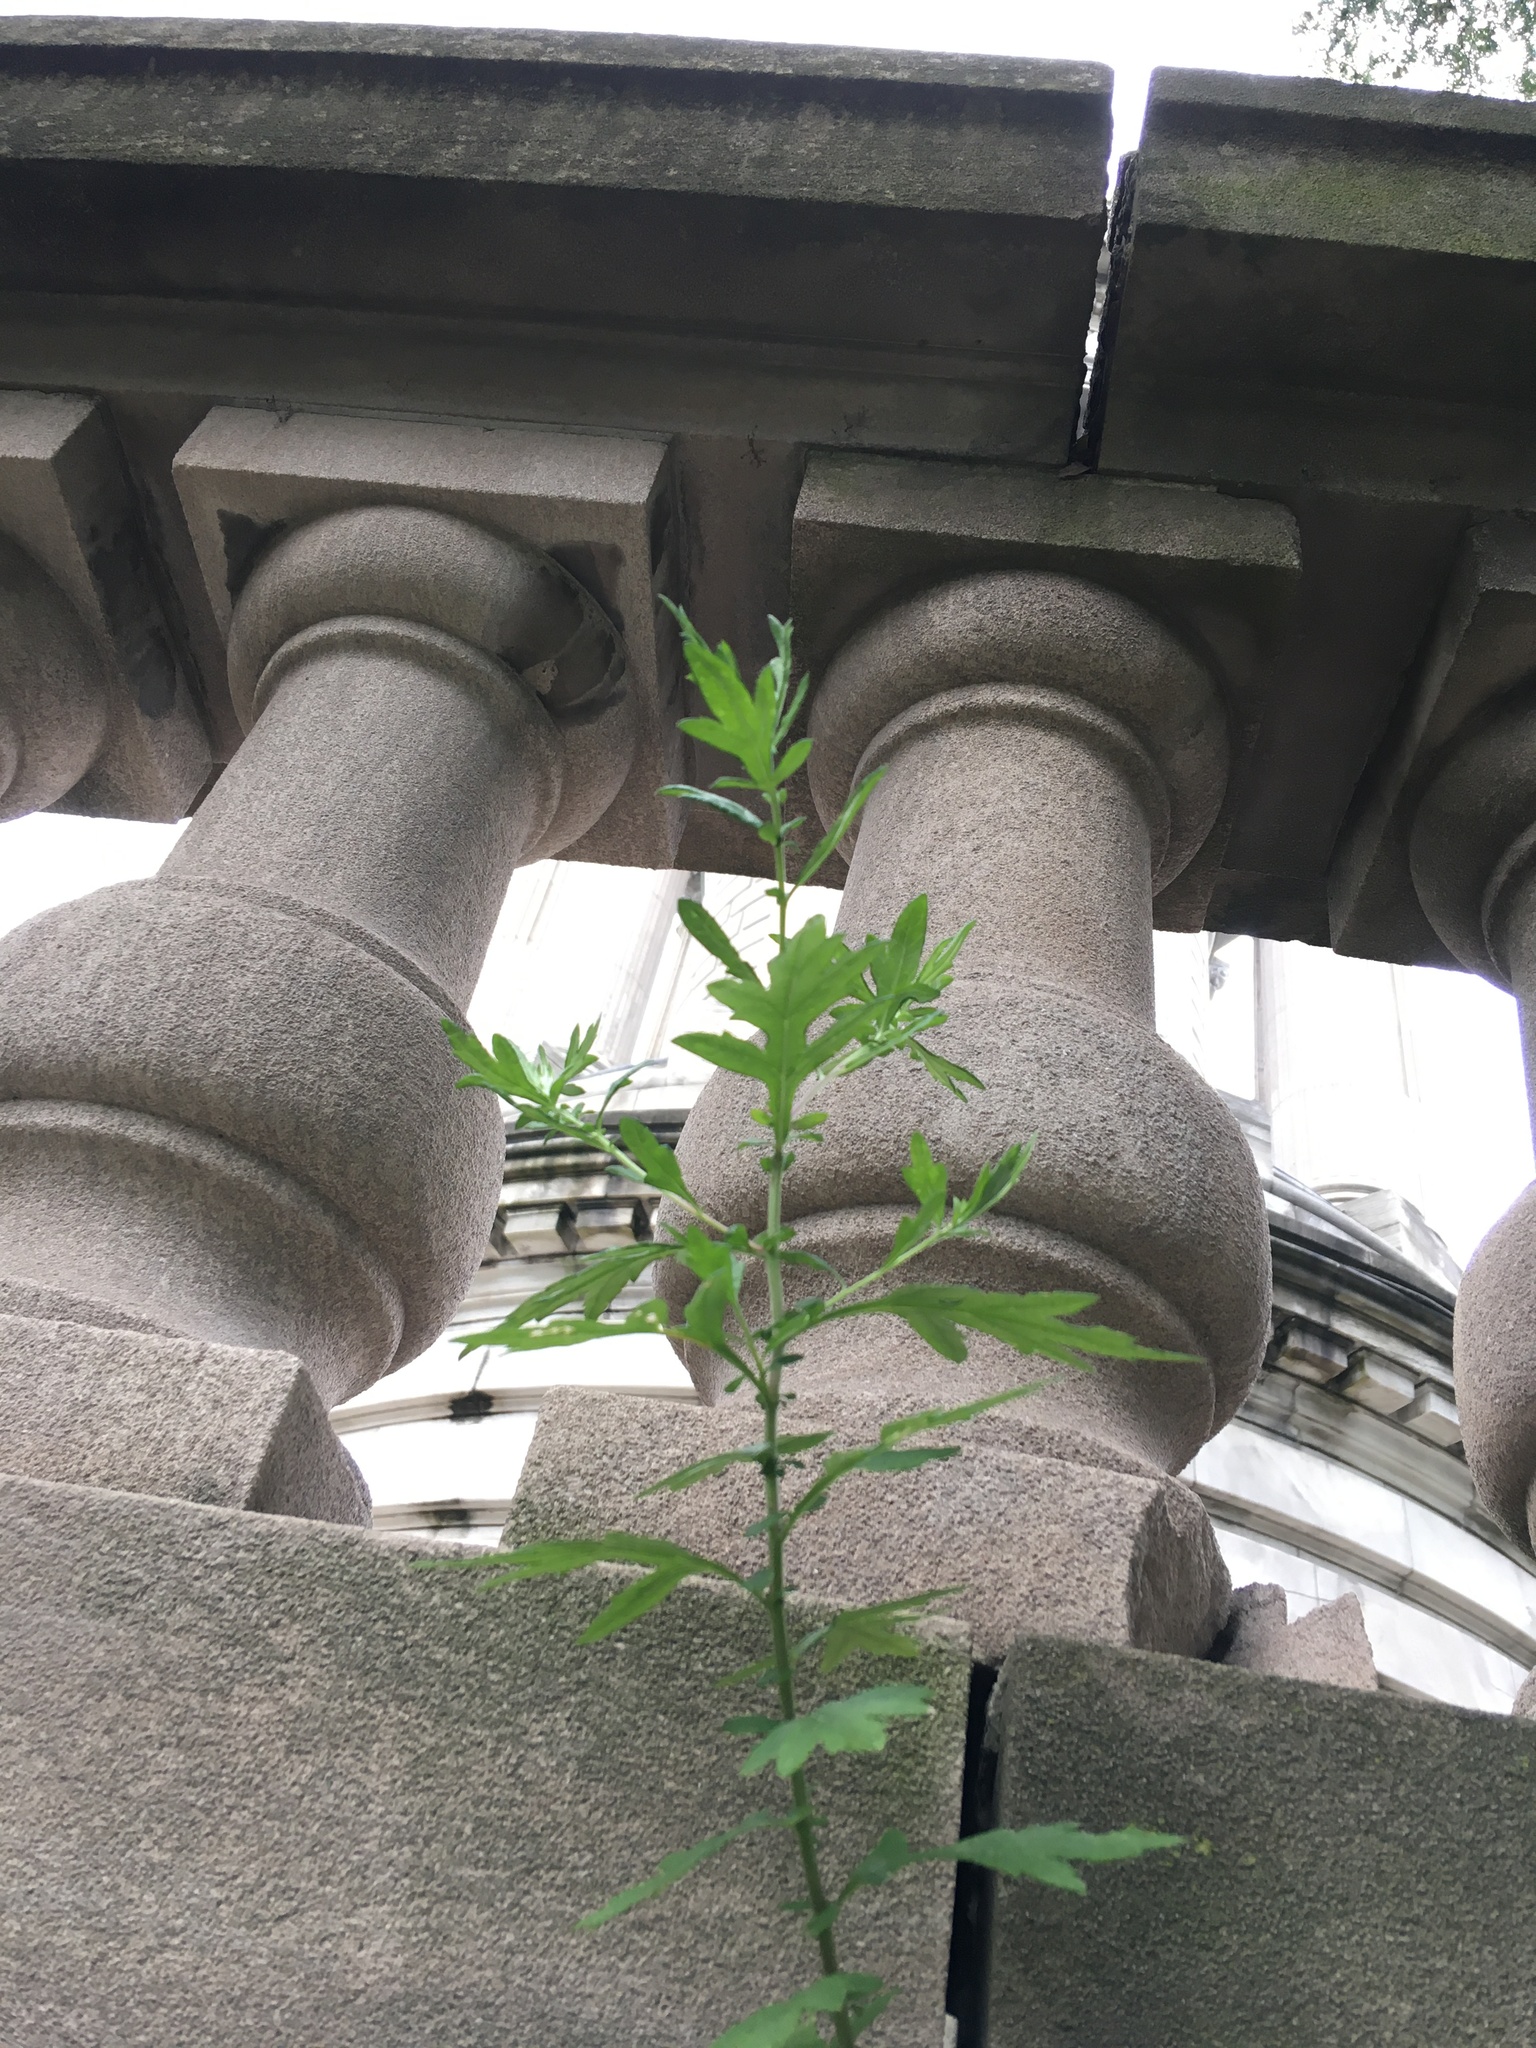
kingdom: Plantae
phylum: Tracheophyta
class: Magnoliopsida
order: Asterales
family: Asteraceae
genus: Artemisia
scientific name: Artemisia vulgaris
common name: Mugwort
